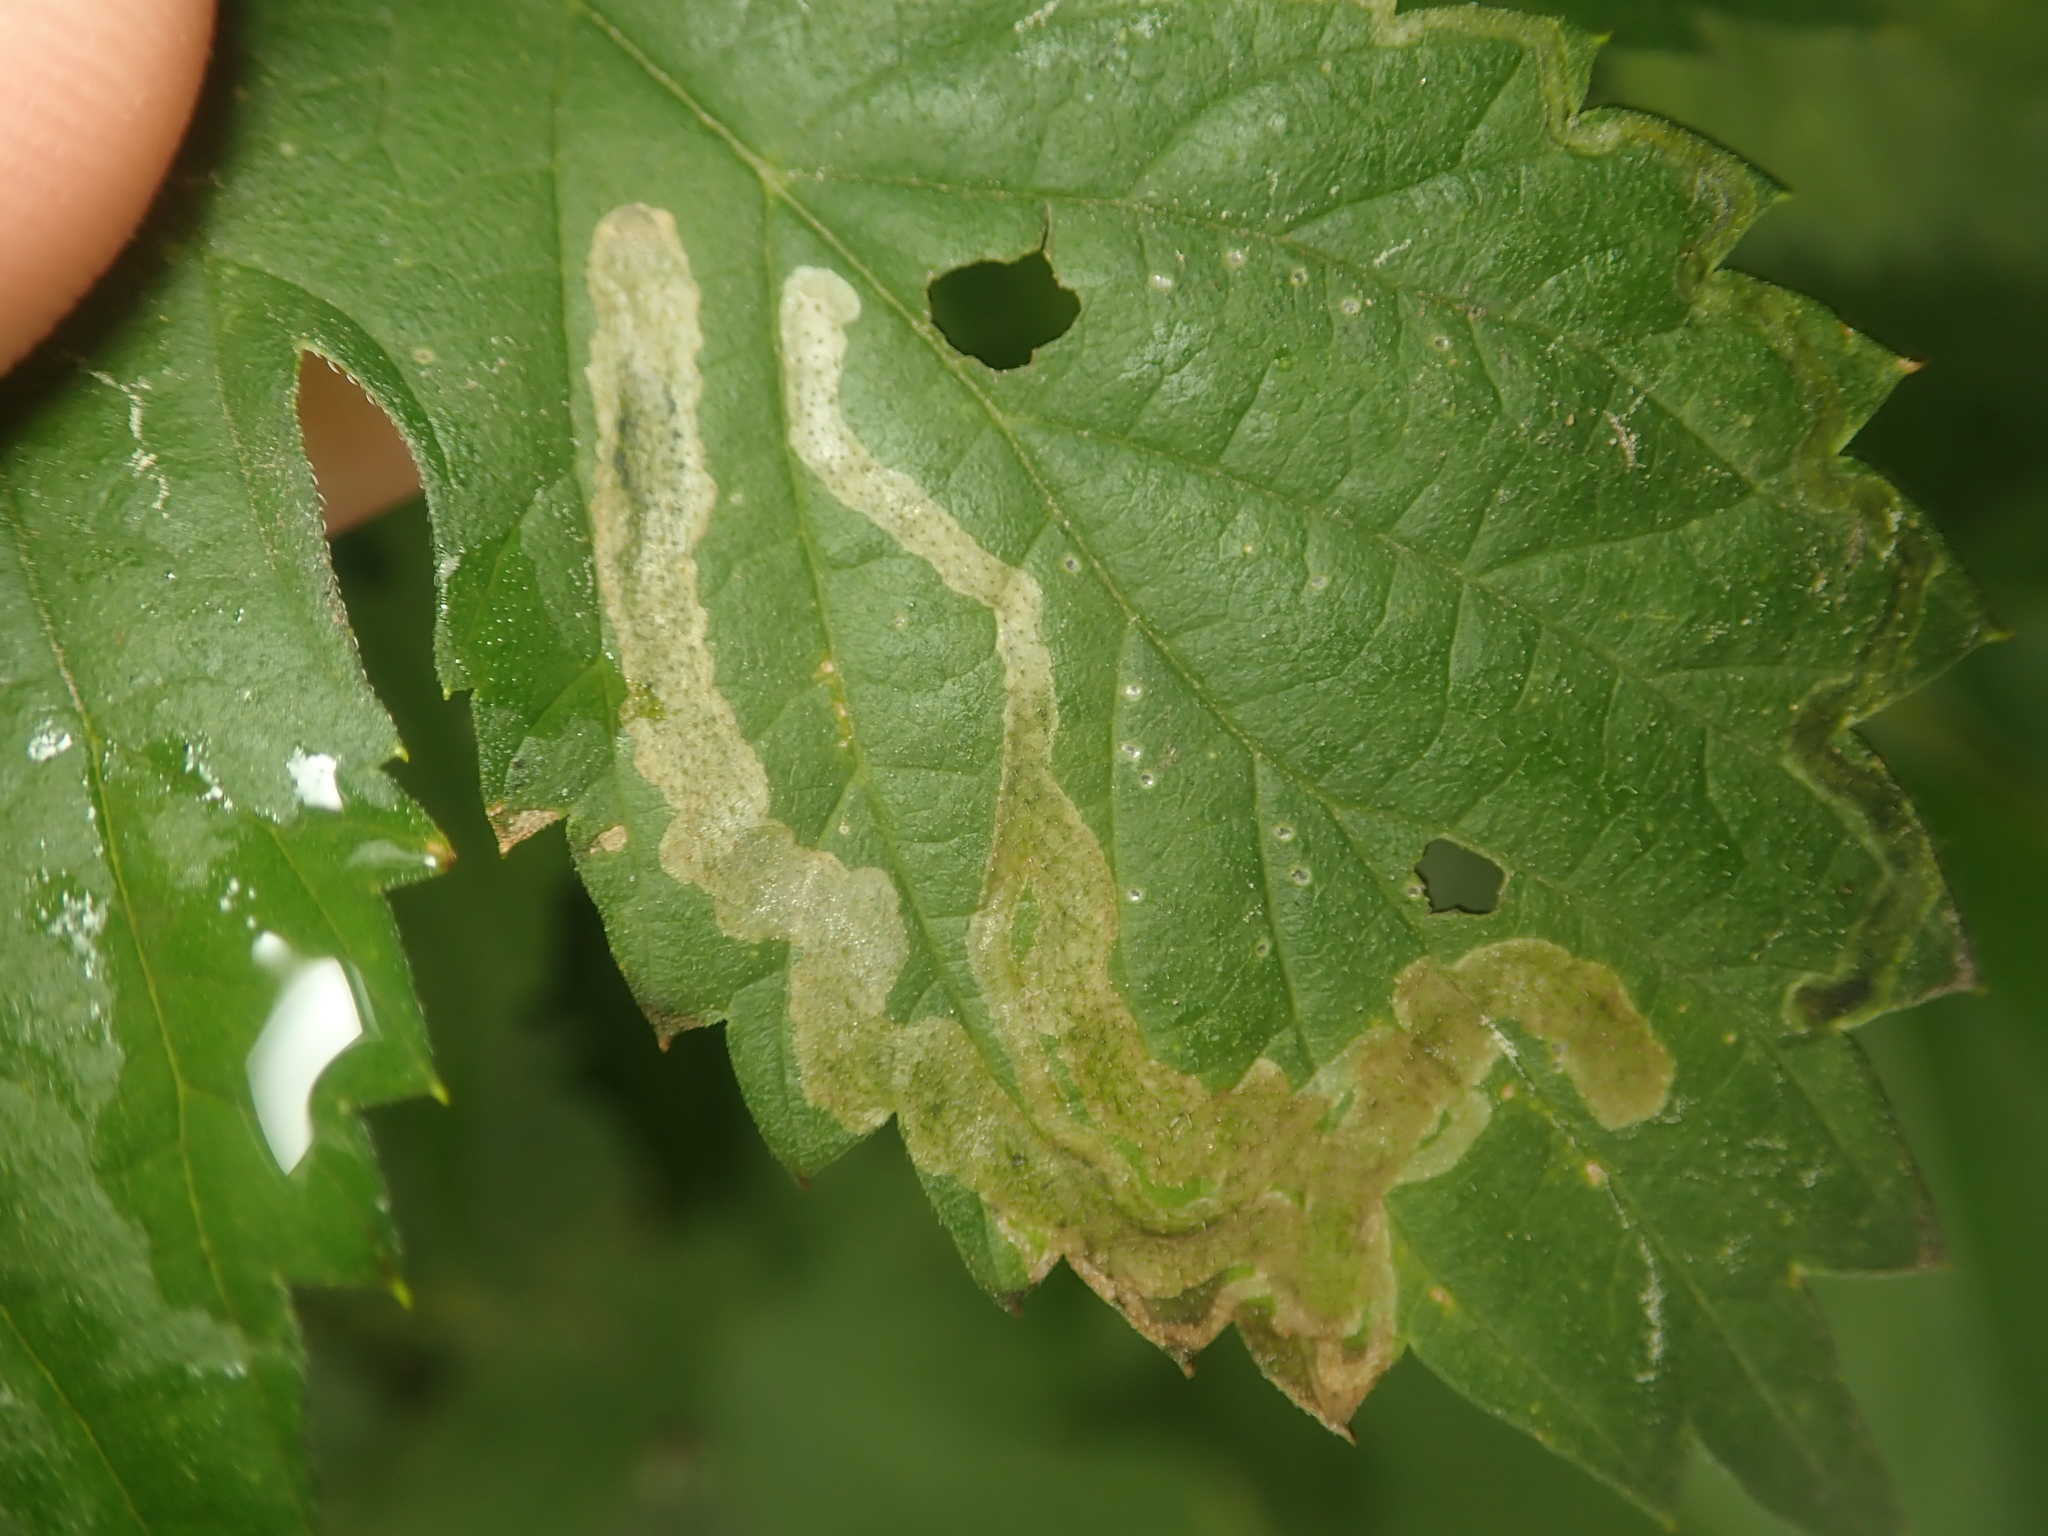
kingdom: Animalia
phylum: Arthropoda
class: Insecta
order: Diptera
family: Agromyzidae
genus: Agromyza
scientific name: Agromyza flaviceps
